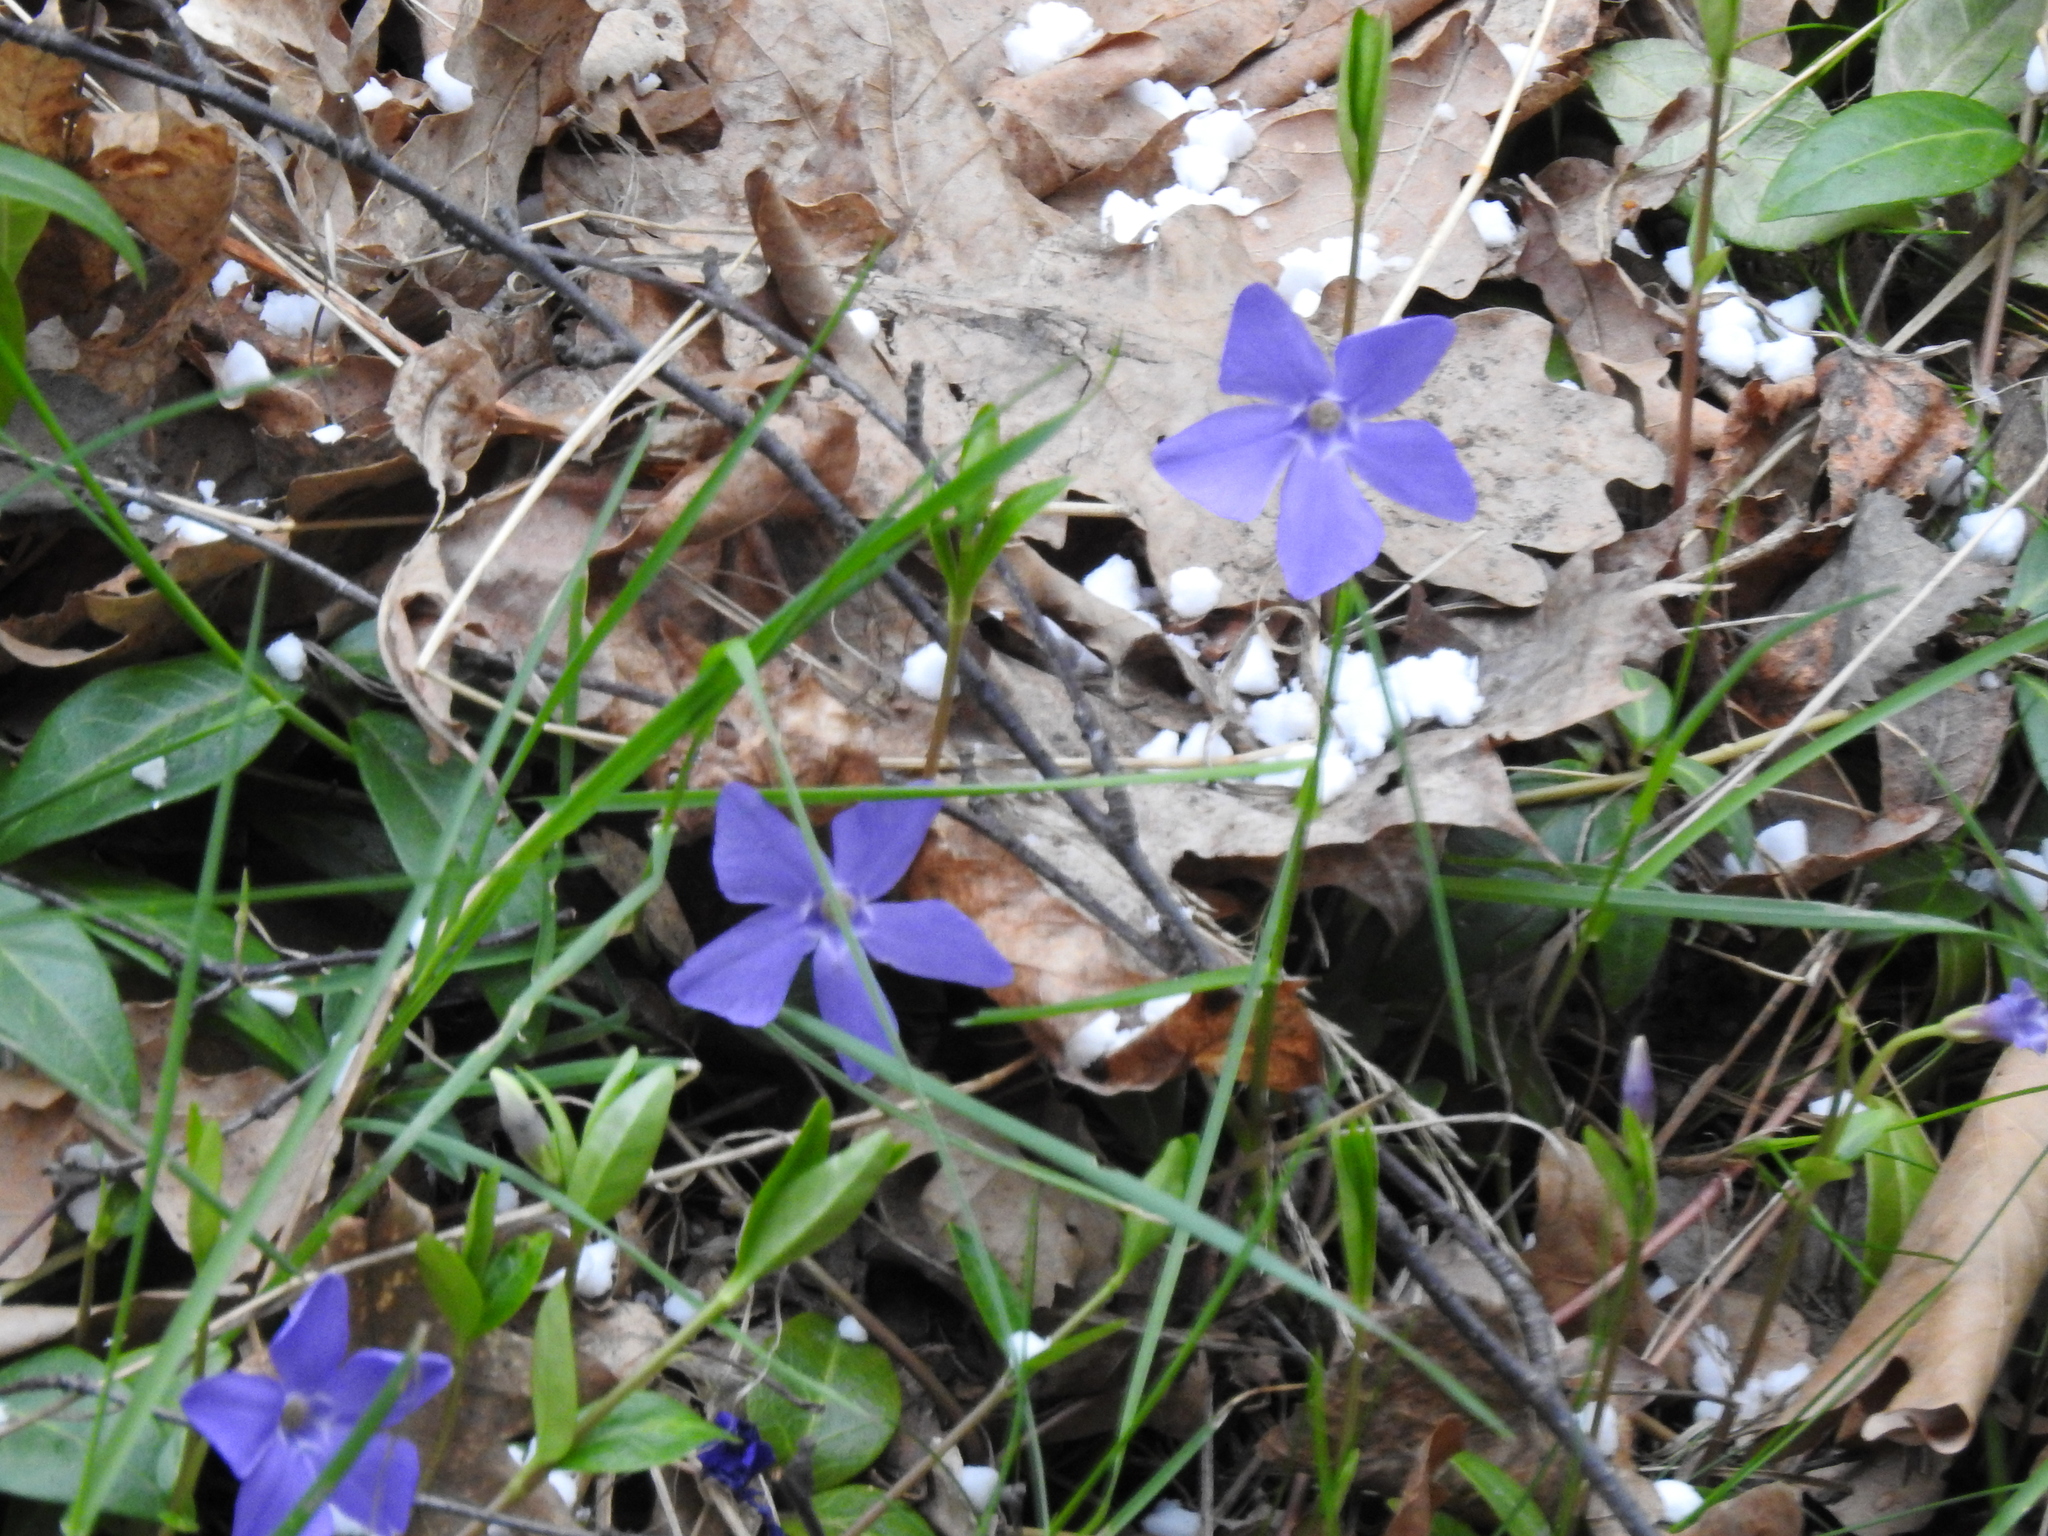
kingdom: Plantae
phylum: Tracheophyta
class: Magnoliopsida
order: Gentianales
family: Apocynaceae
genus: Vinca
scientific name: Vinca minor
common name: Lesser periwinkle
